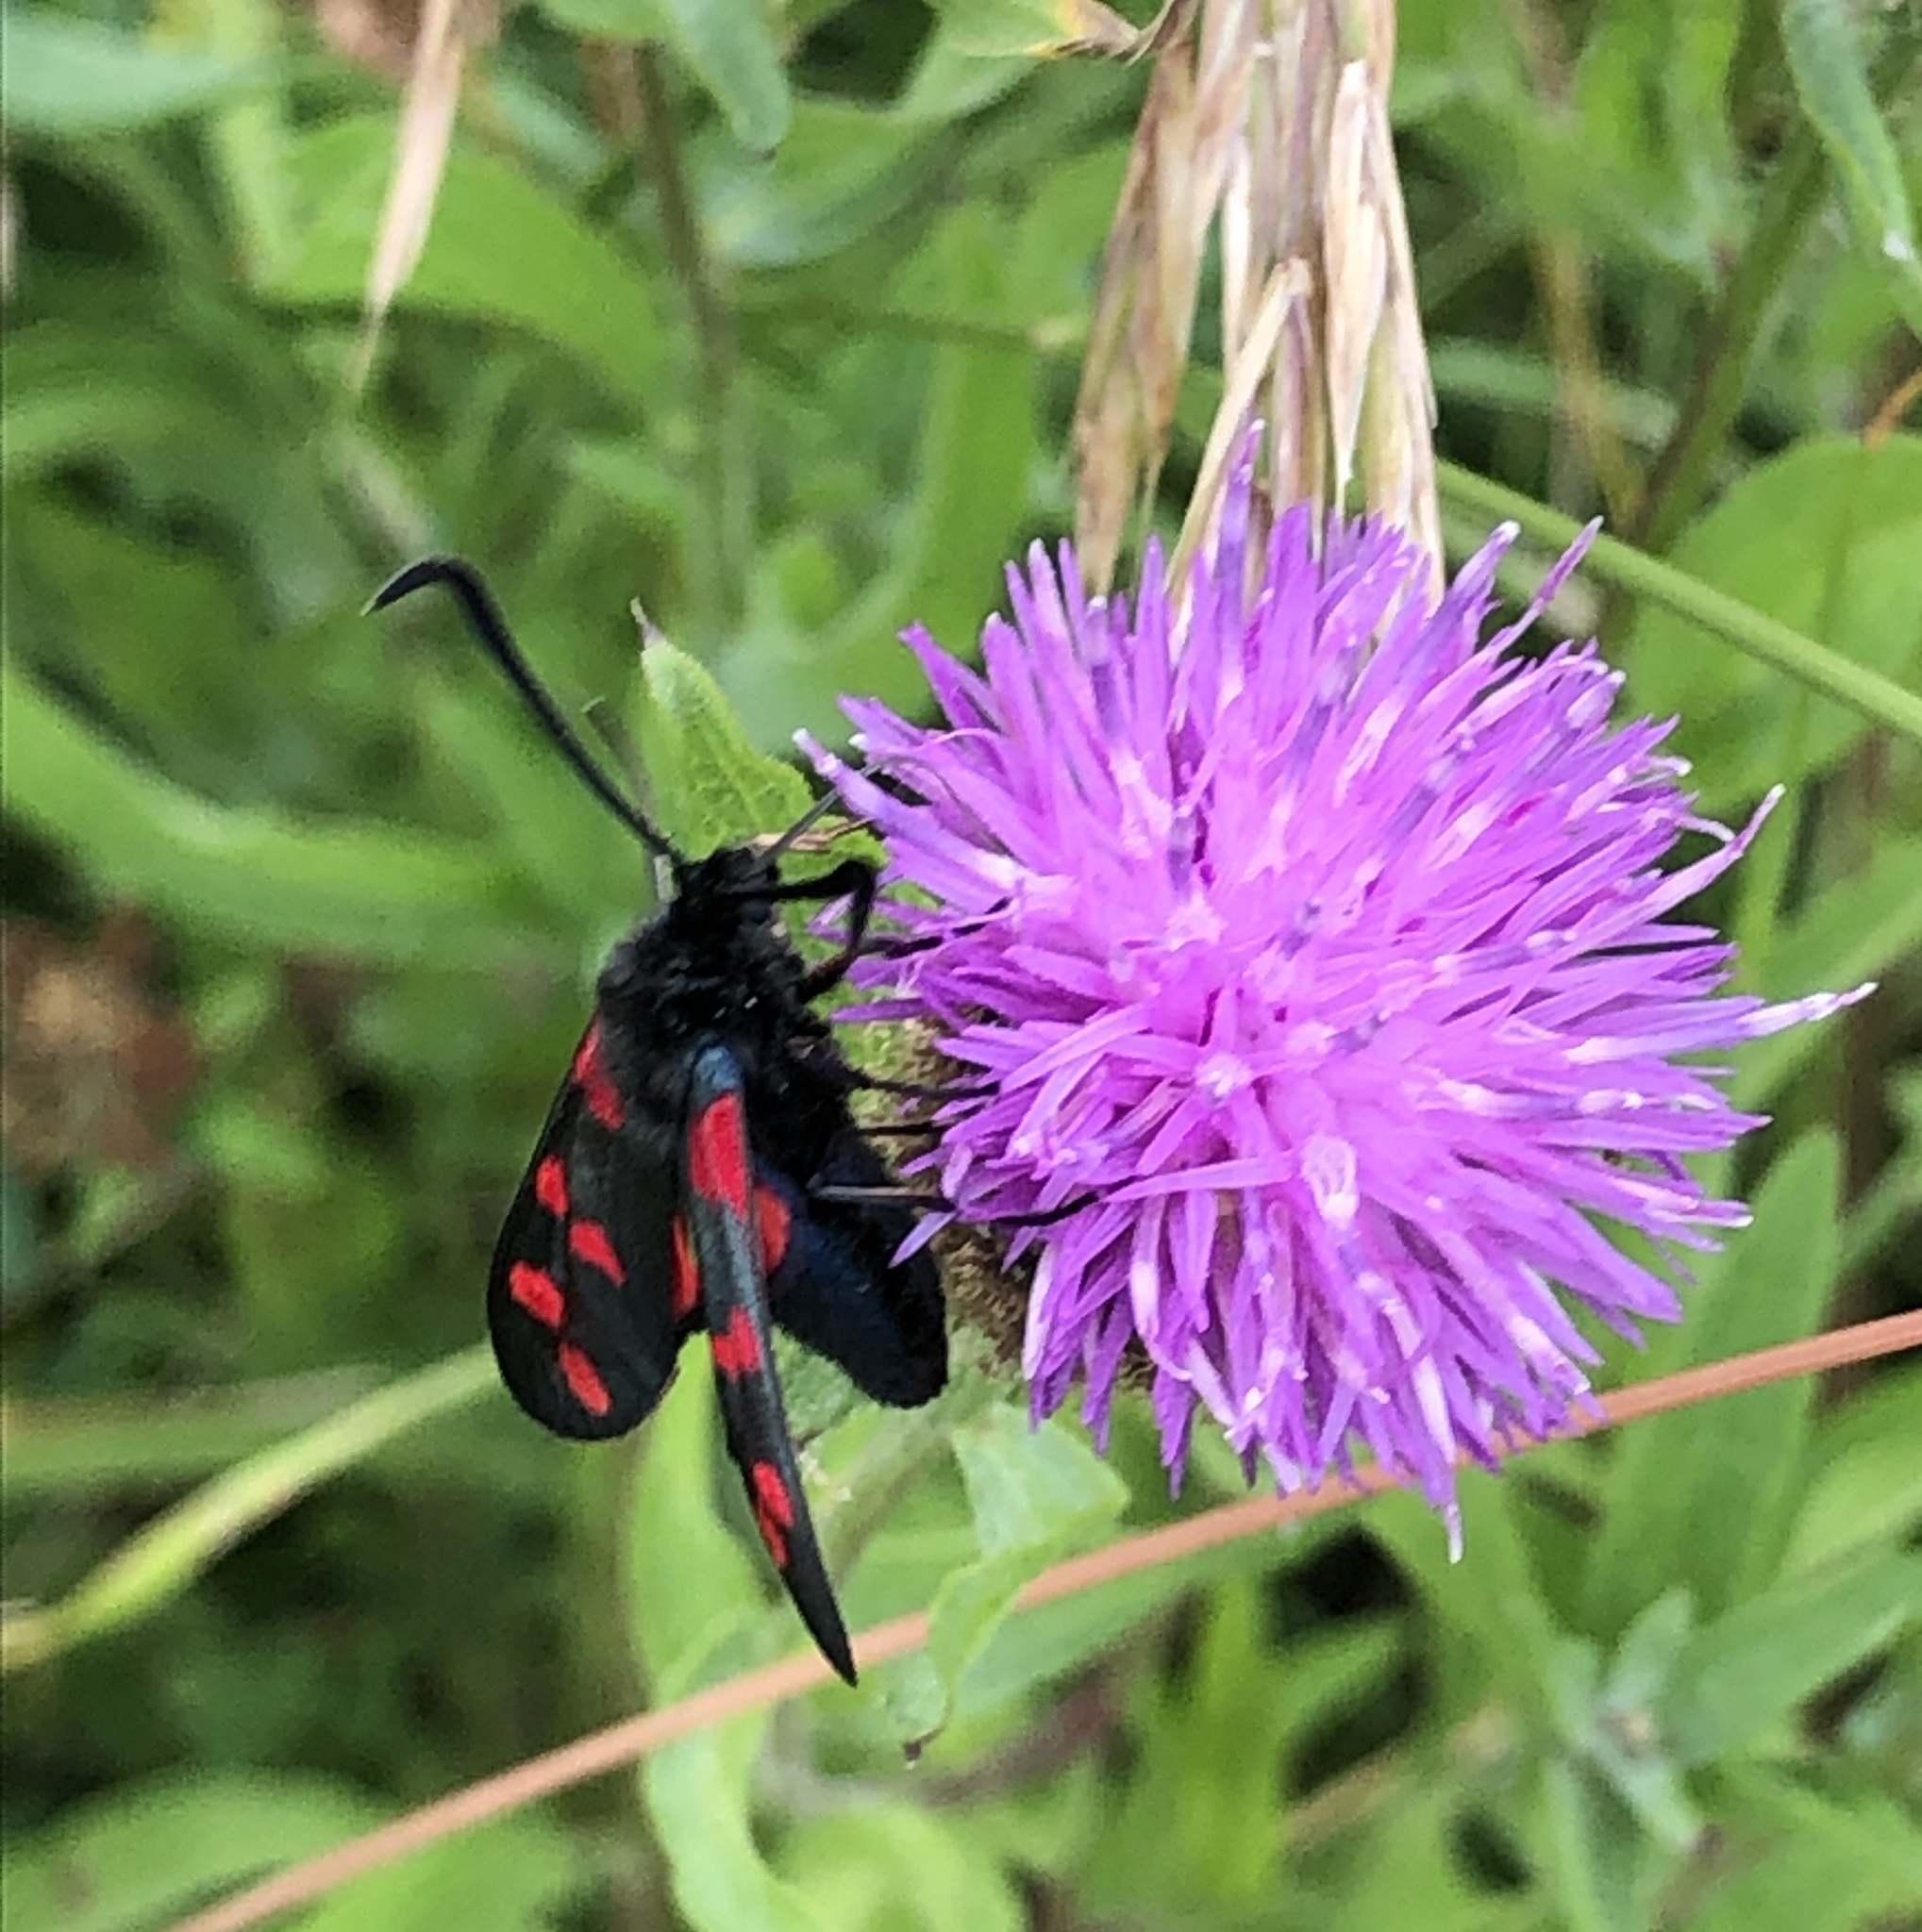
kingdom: Animalia
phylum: Arthropoda
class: Insecta
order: Lepidoptera
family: Zygaenidae
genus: Zygaena
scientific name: Zygaena filipendulae
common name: Six-spot burnet
